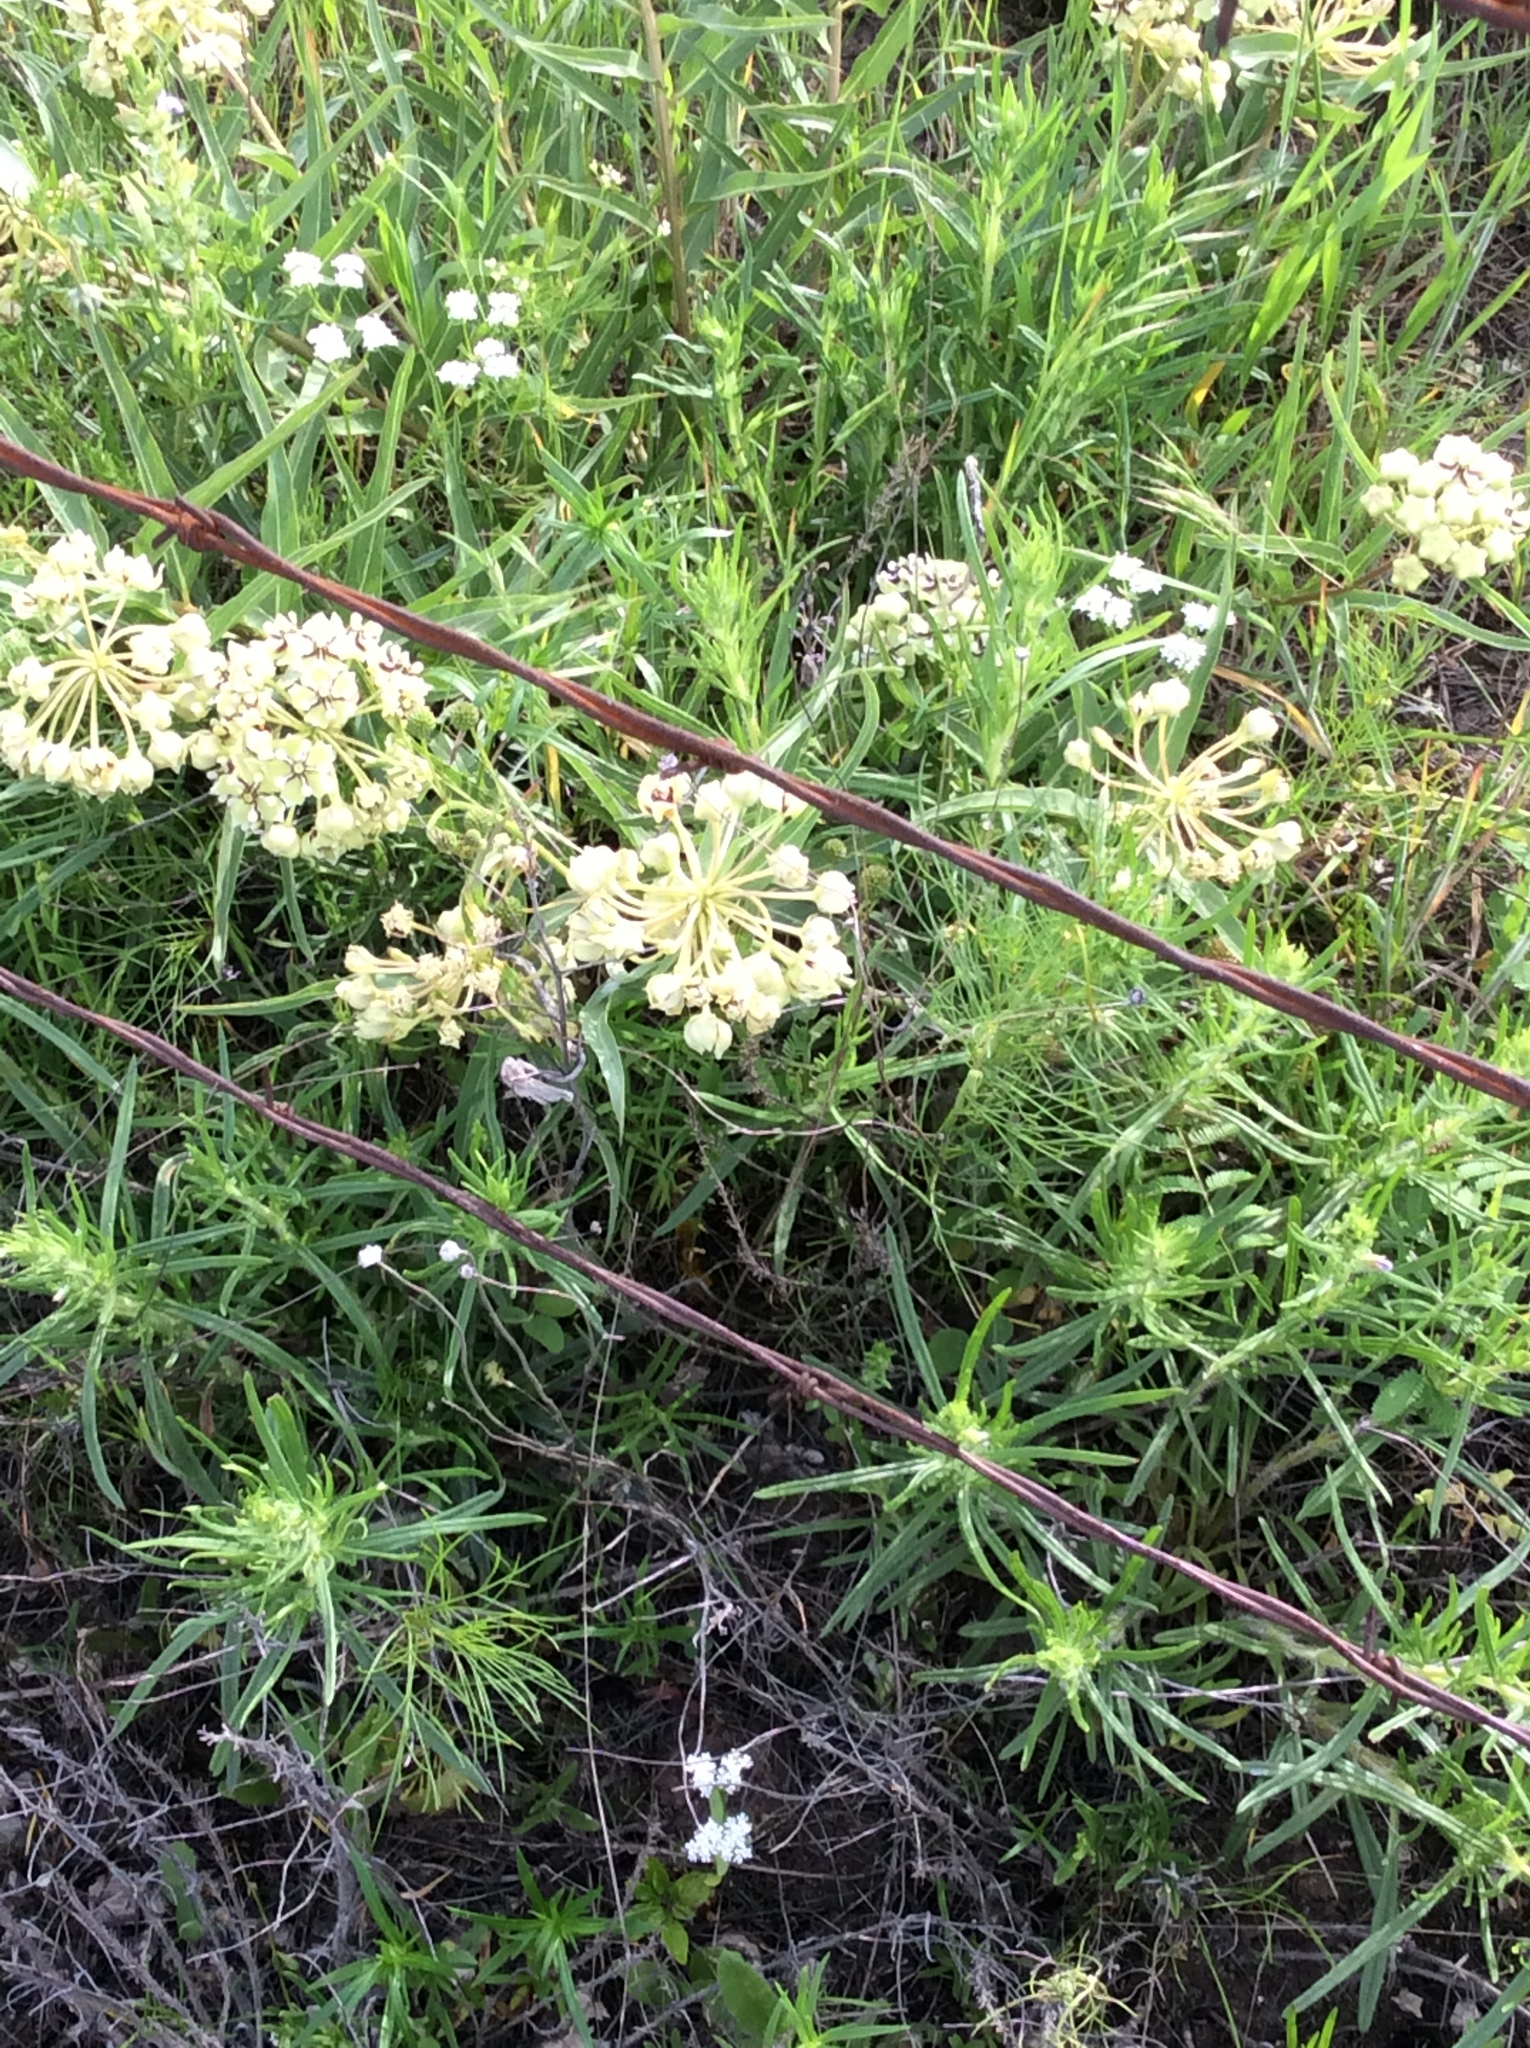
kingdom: Plantae
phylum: Tracheophyta
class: Magnoliopsida
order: Gentianales
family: Apocynaceae
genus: Asclepias
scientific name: Asclepias asperula
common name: Antelope horns
